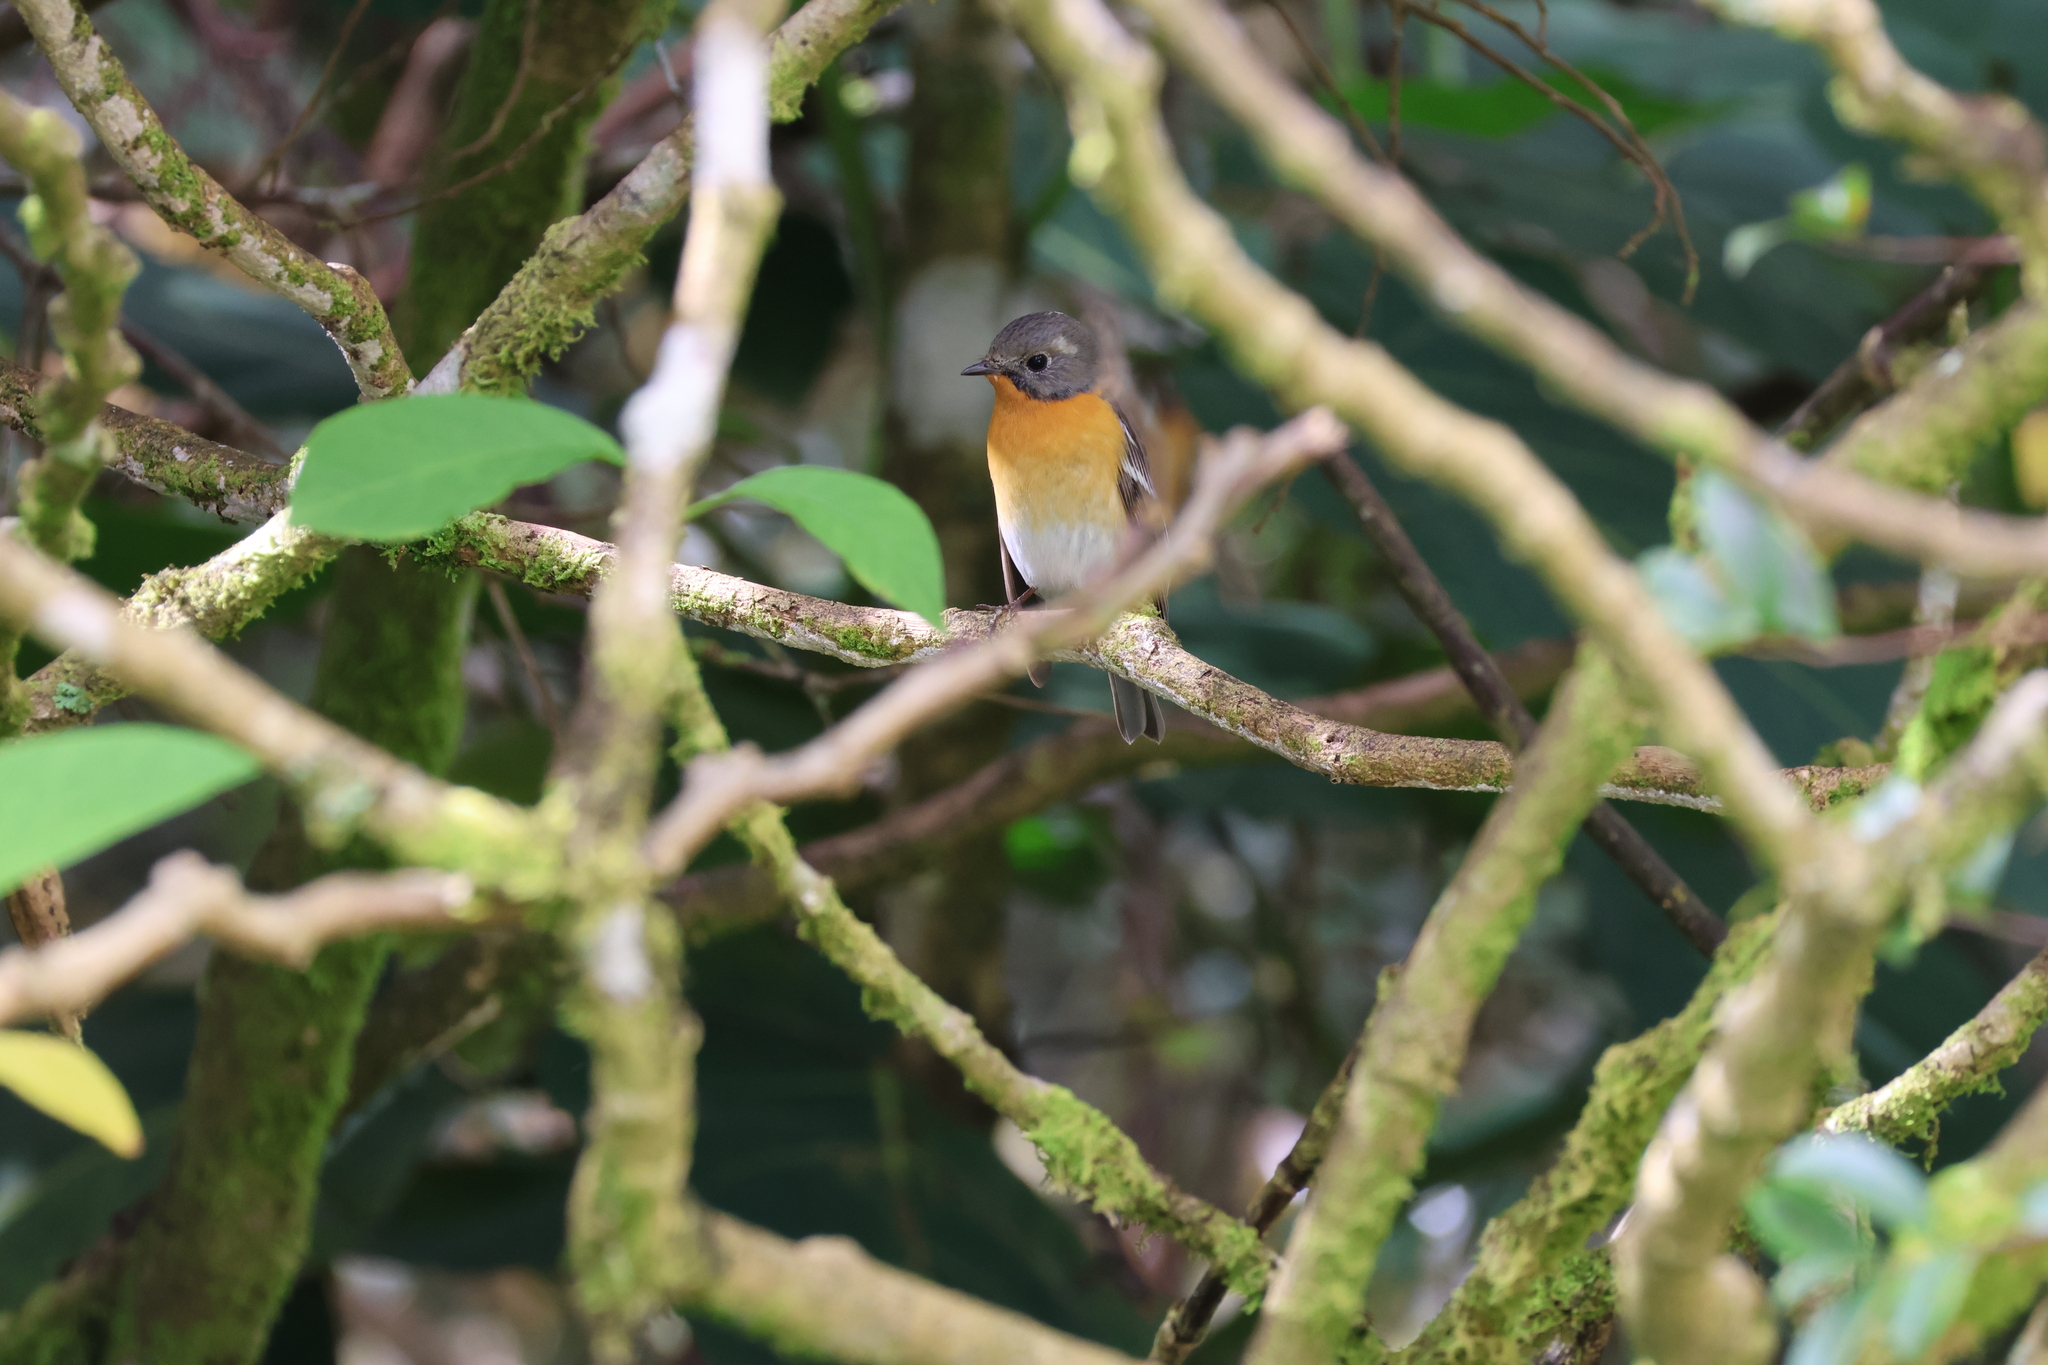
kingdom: Animalia
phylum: Chordata
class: Aves
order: Passeriformes
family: Muscicapidae
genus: Ficedula
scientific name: Ficedula mugimaki
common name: Mugimaki flycatcher
